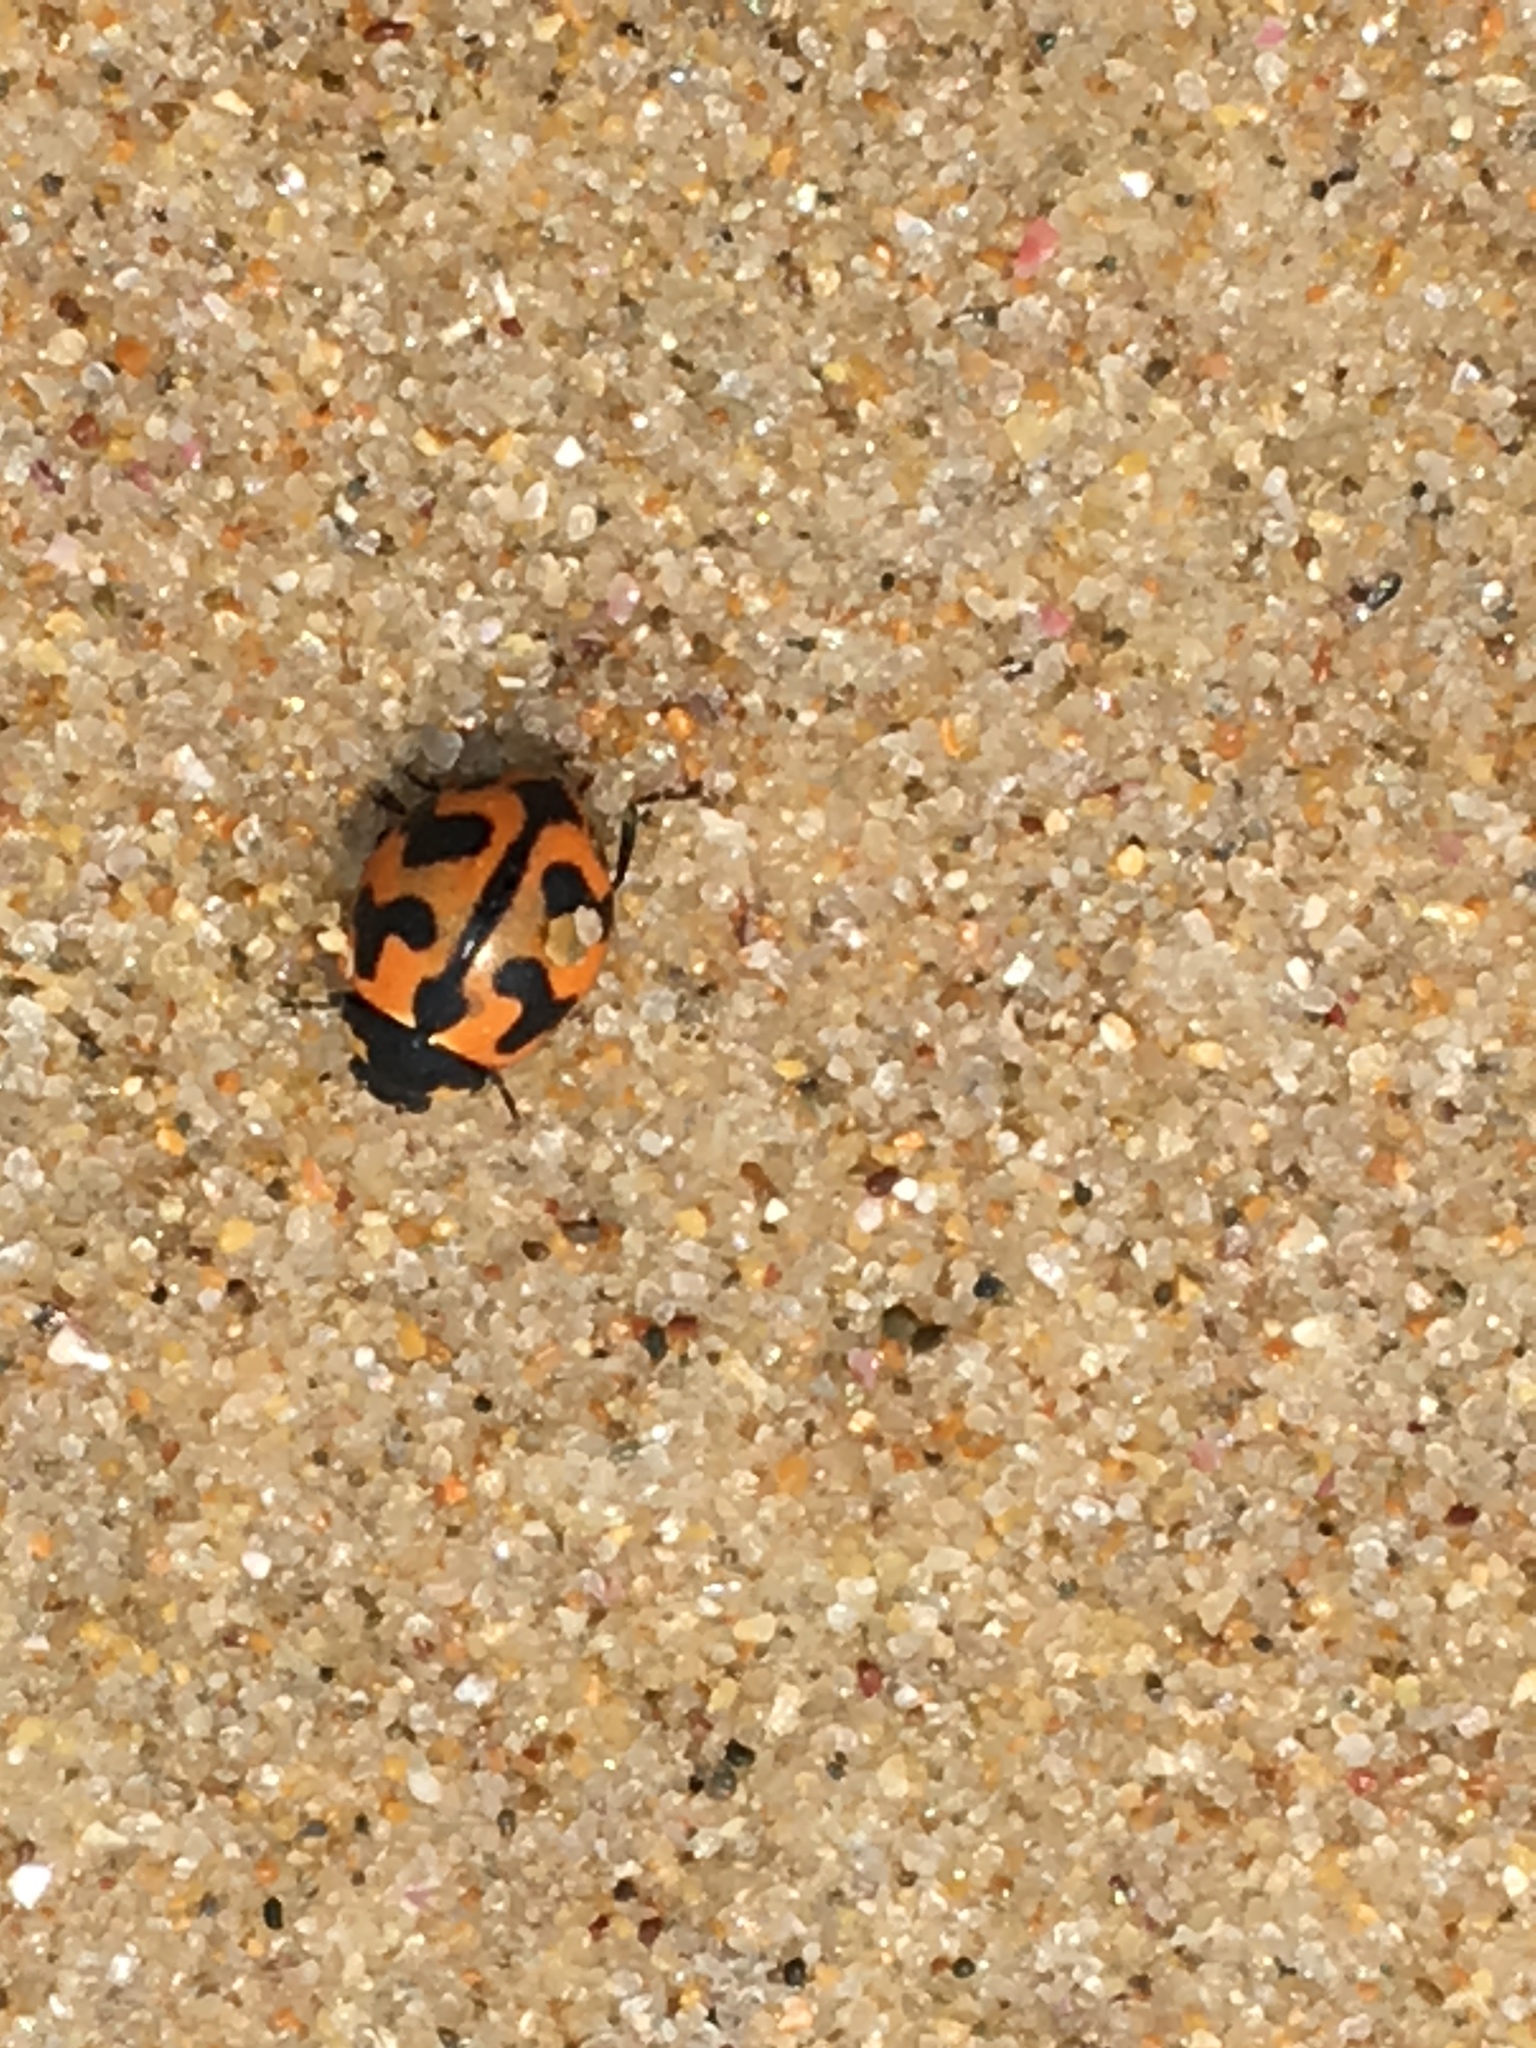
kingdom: Animalia
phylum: Arthropoda
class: Insecta
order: Coleoptera
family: Coccinellidae
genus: Coccinella
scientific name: Coccinella transversalis
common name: Transverse lady beetle
